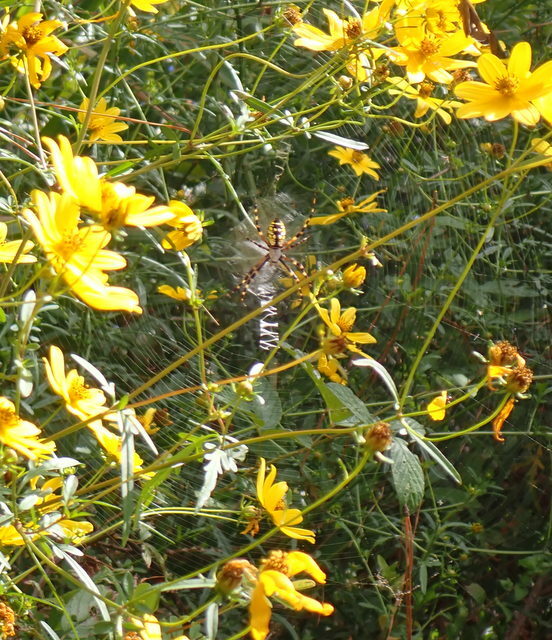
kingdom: Animalia
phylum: Arthropoda
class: Arachnida
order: Araneae
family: Araneidae
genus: Argiope
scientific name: Argiope aurantia
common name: Orb weavers
